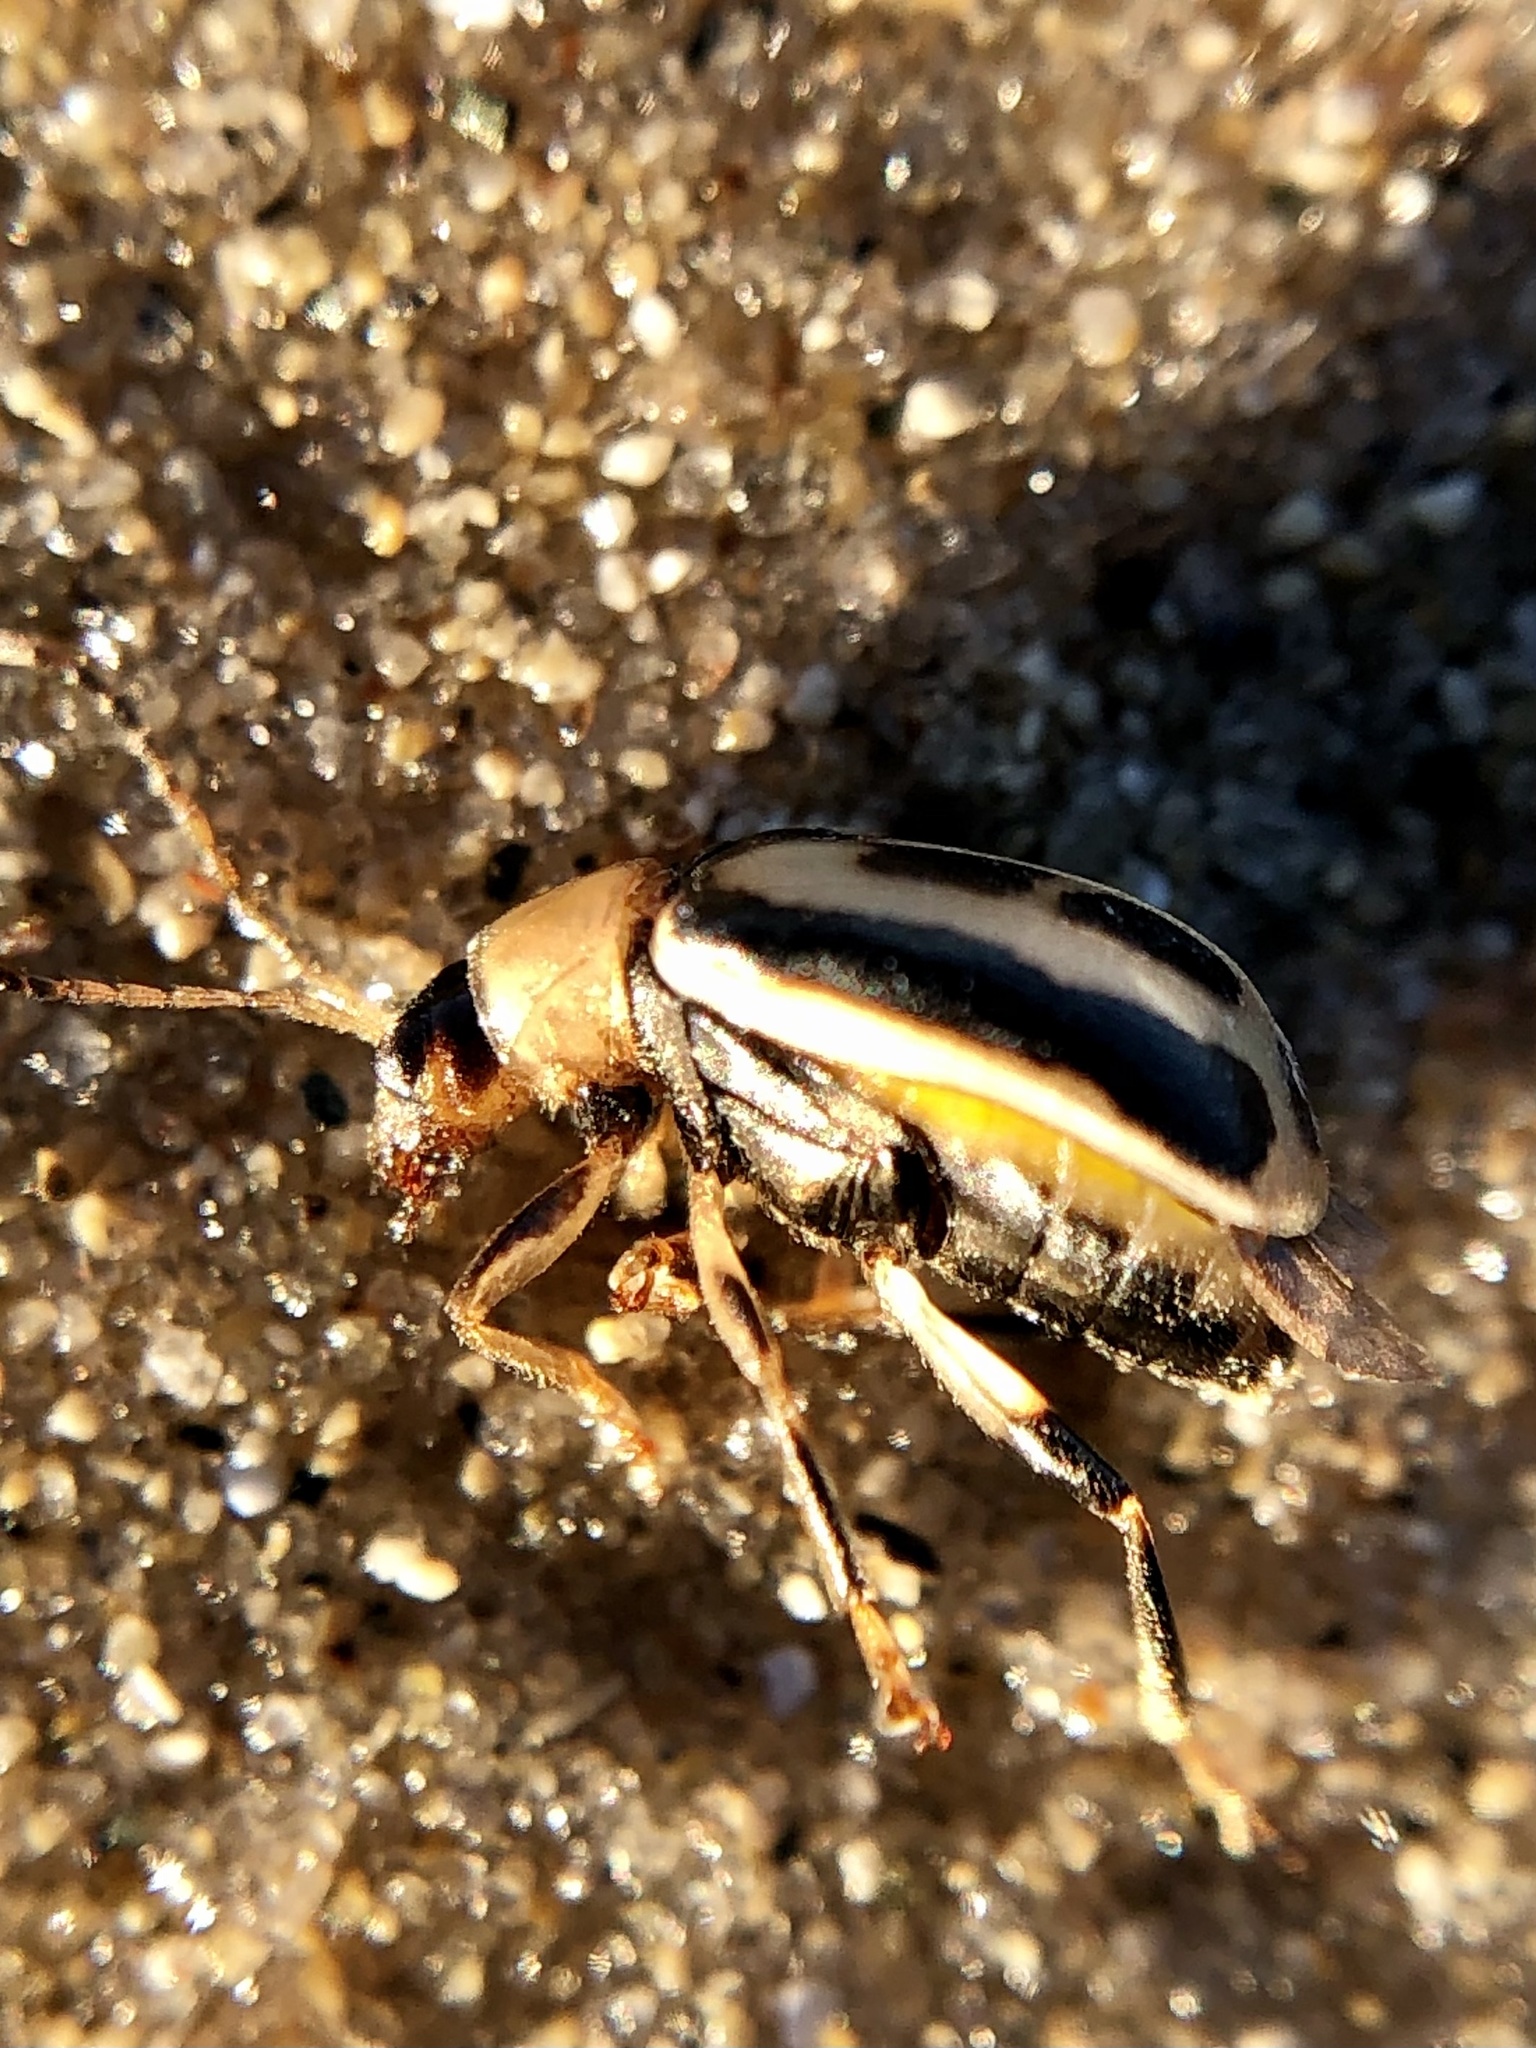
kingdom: Animalia
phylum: Arthropoda
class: Insecta
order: Coleoptera
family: Chrysomelidae
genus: Cerotoma
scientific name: Cerotoma trifurcata
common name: Bean leaf beetle
